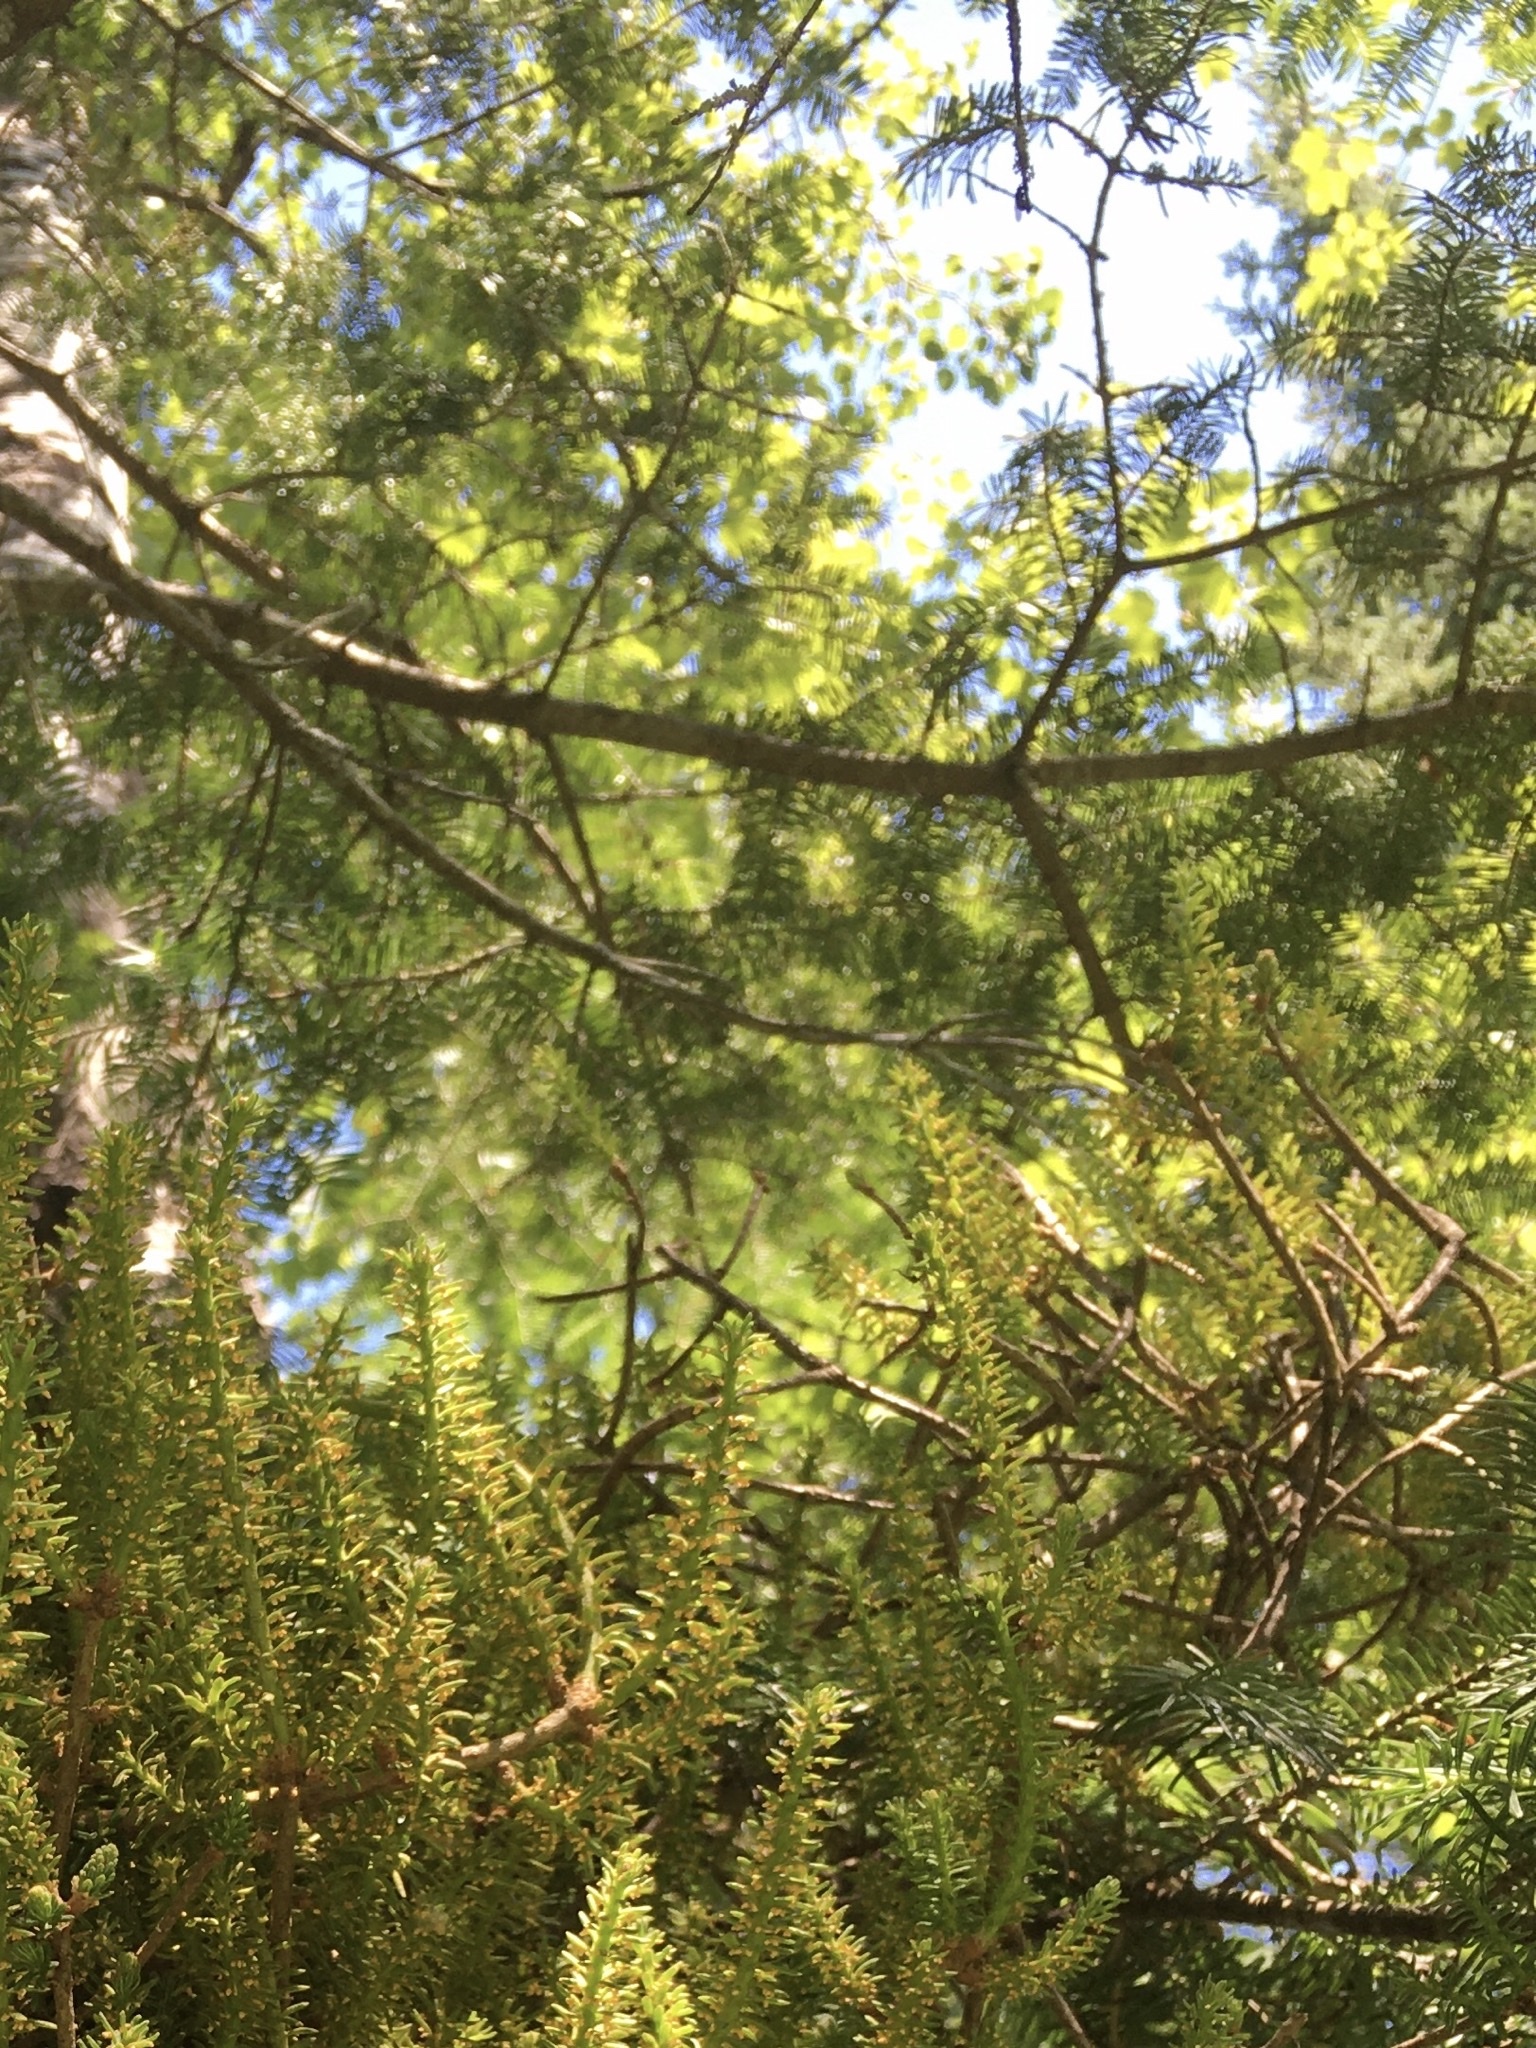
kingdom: Plantae
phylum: Tracheophyta
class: Pinopsida
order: Pinales
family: Pinaceae
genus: Abies
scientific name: Abies balsamea
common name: Balsam fir
